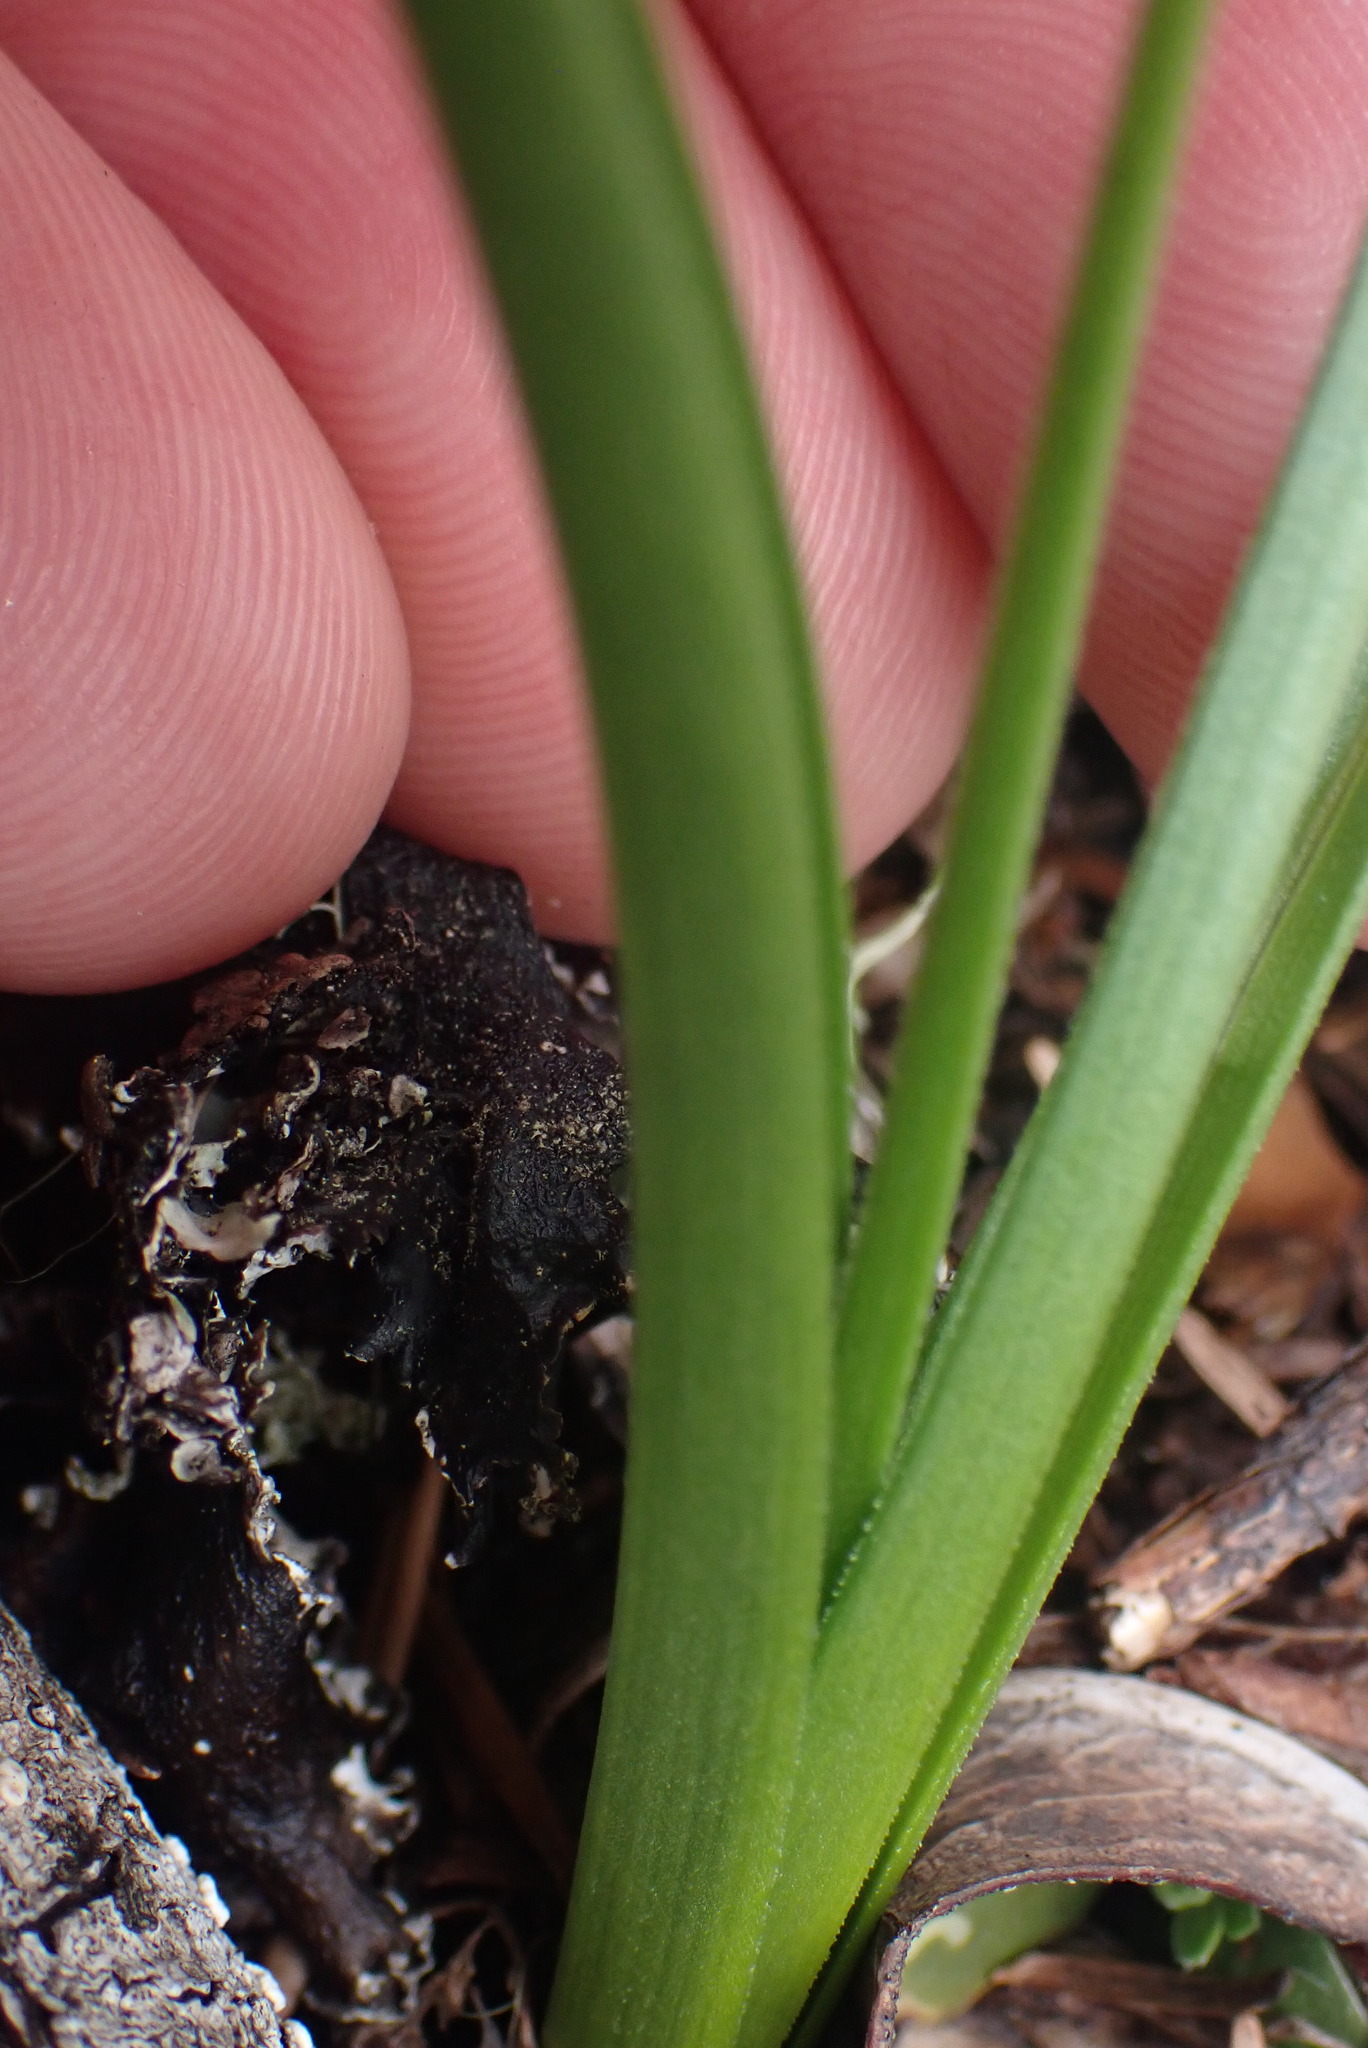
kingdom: Plantae
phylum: Tracheophyta
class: Liliopsida
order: Liliales
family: Melanthiaceae
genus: Toxicoscordion
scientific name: Toxicoscordion venenosum
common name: Meadow death camas
